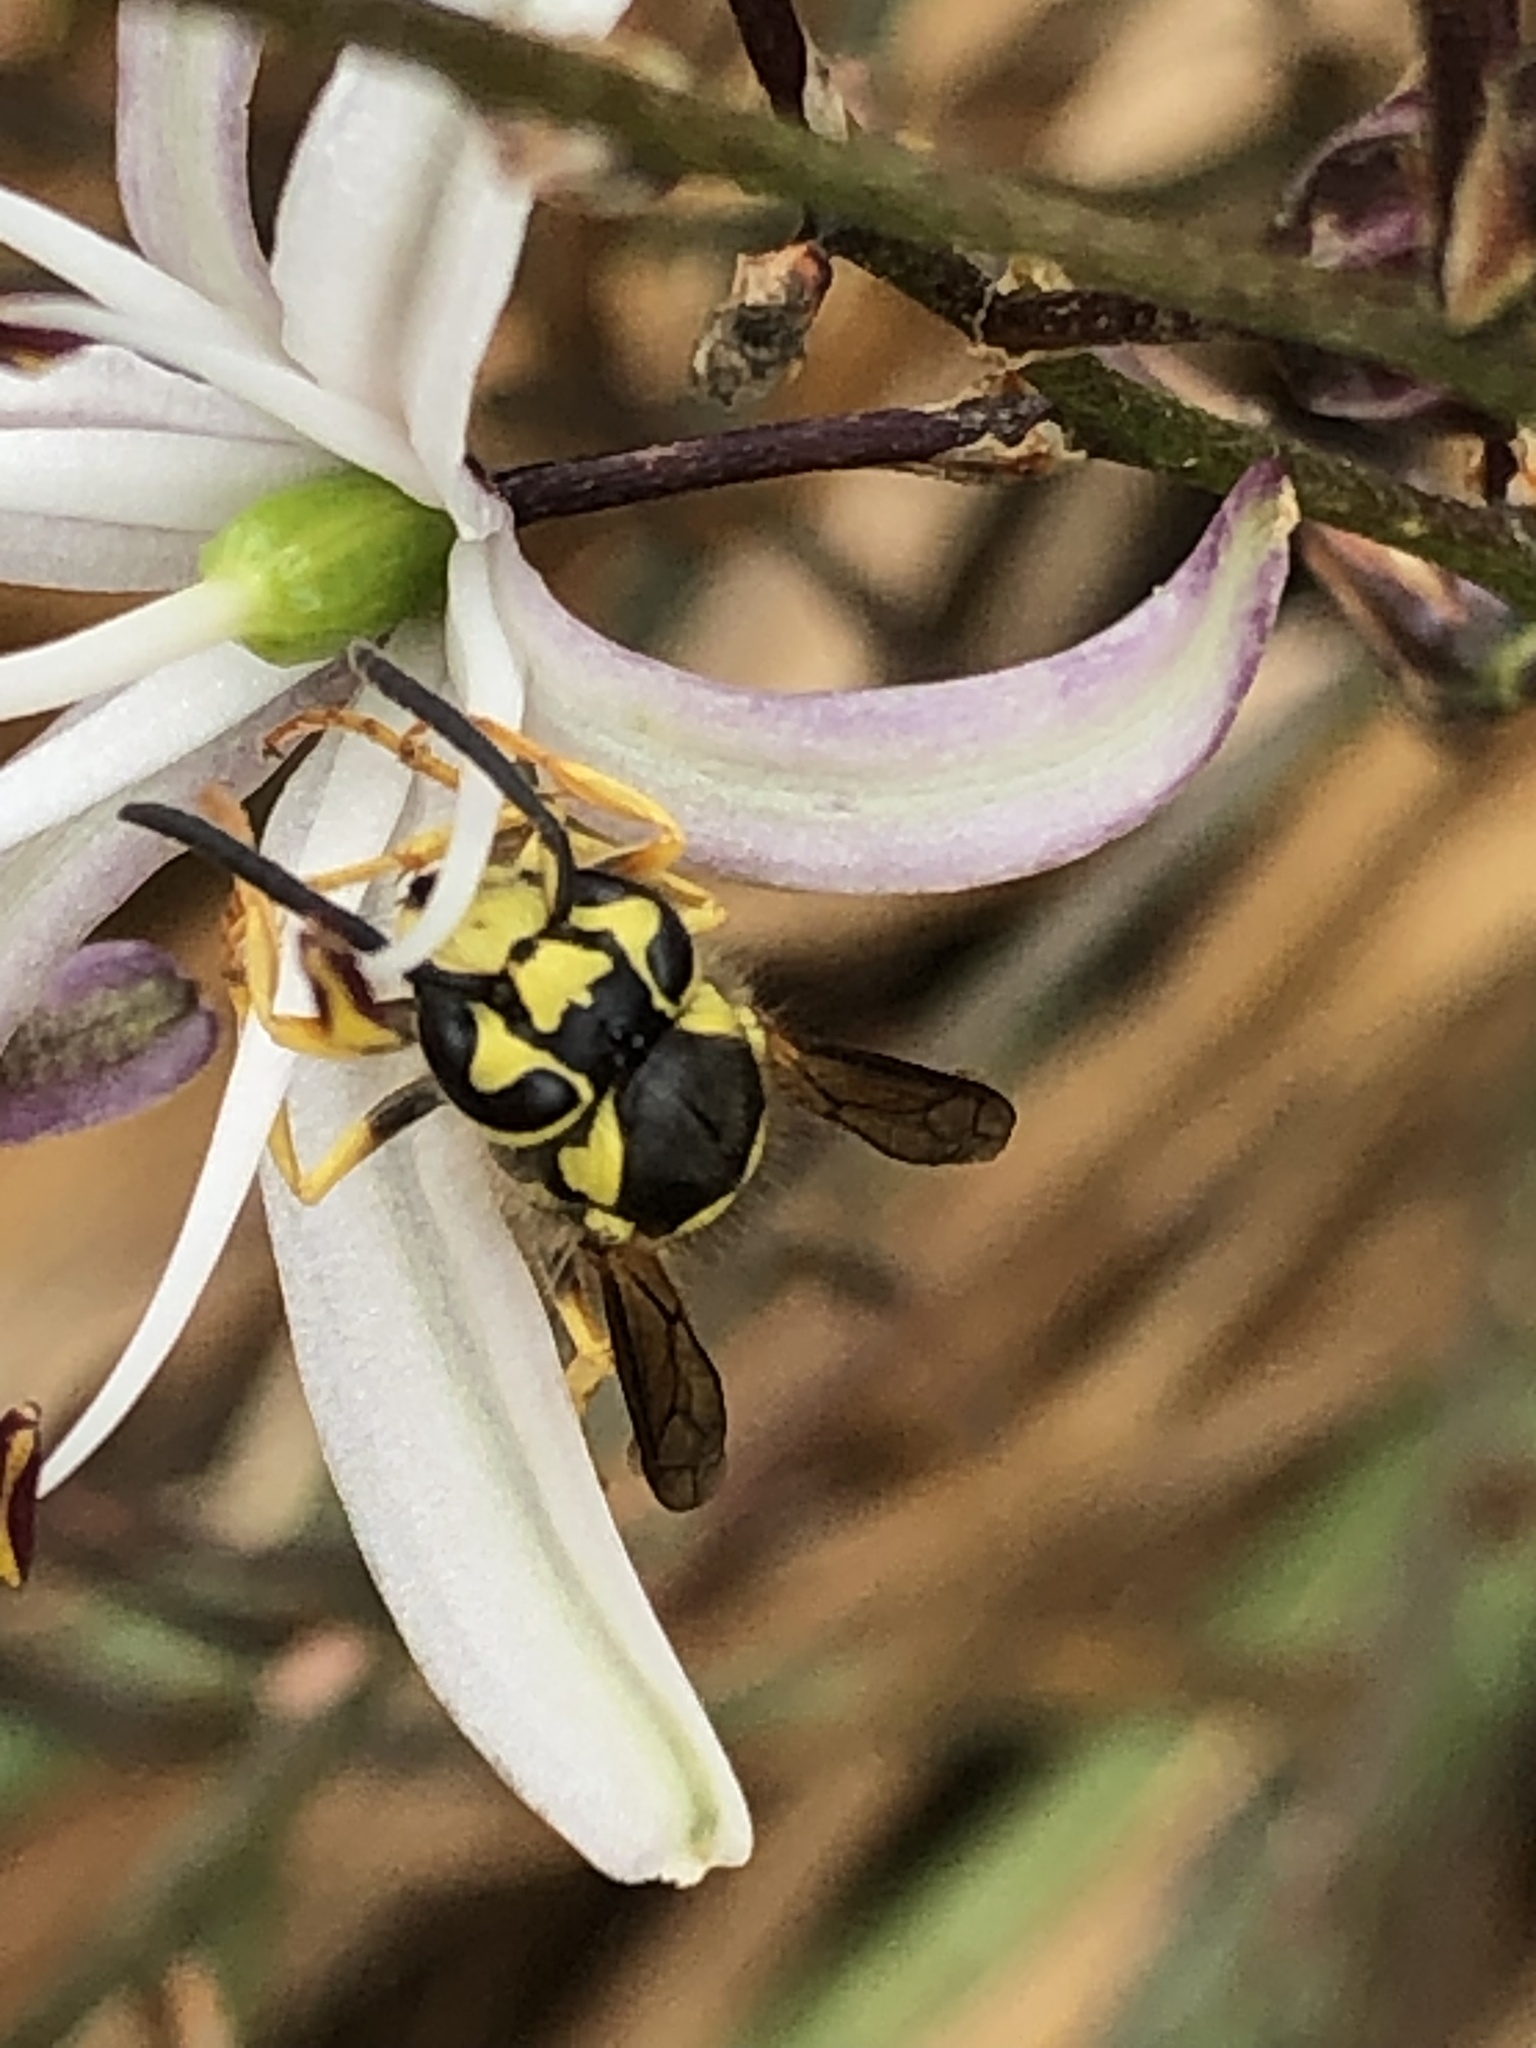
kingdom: Animalia
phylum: Arthropoda
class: Insecta
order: Hymenoptera
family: Vespidae
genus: Vespula
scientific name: Vespula pensylvanica
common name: Western yellowjacket
